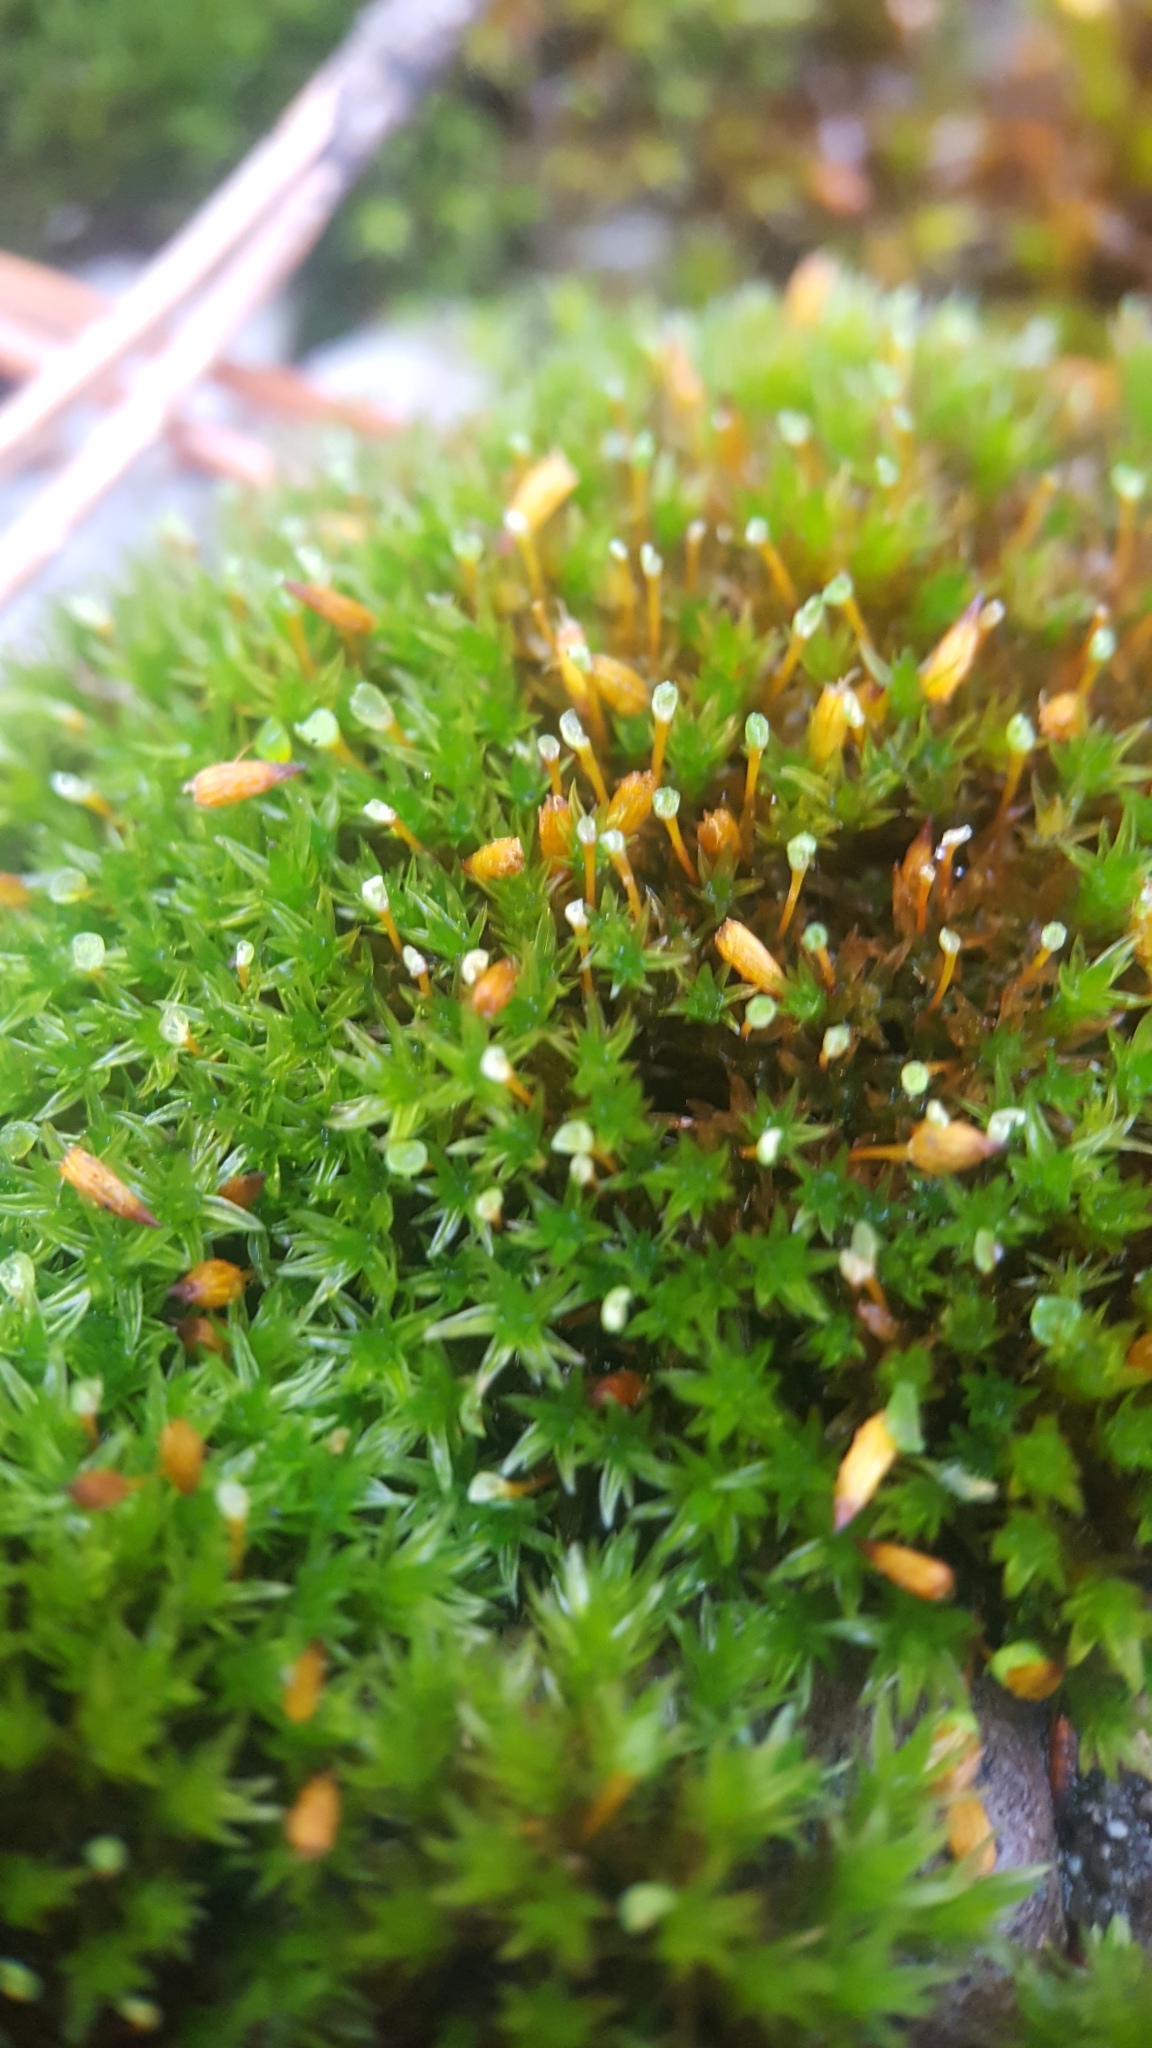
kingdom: Plantae
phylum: Bryophyta
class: Bryopsida
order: Orthotrichales
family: Orthotrichaceae
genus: Orthotrichum
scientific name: Orthotrichum anomalum
